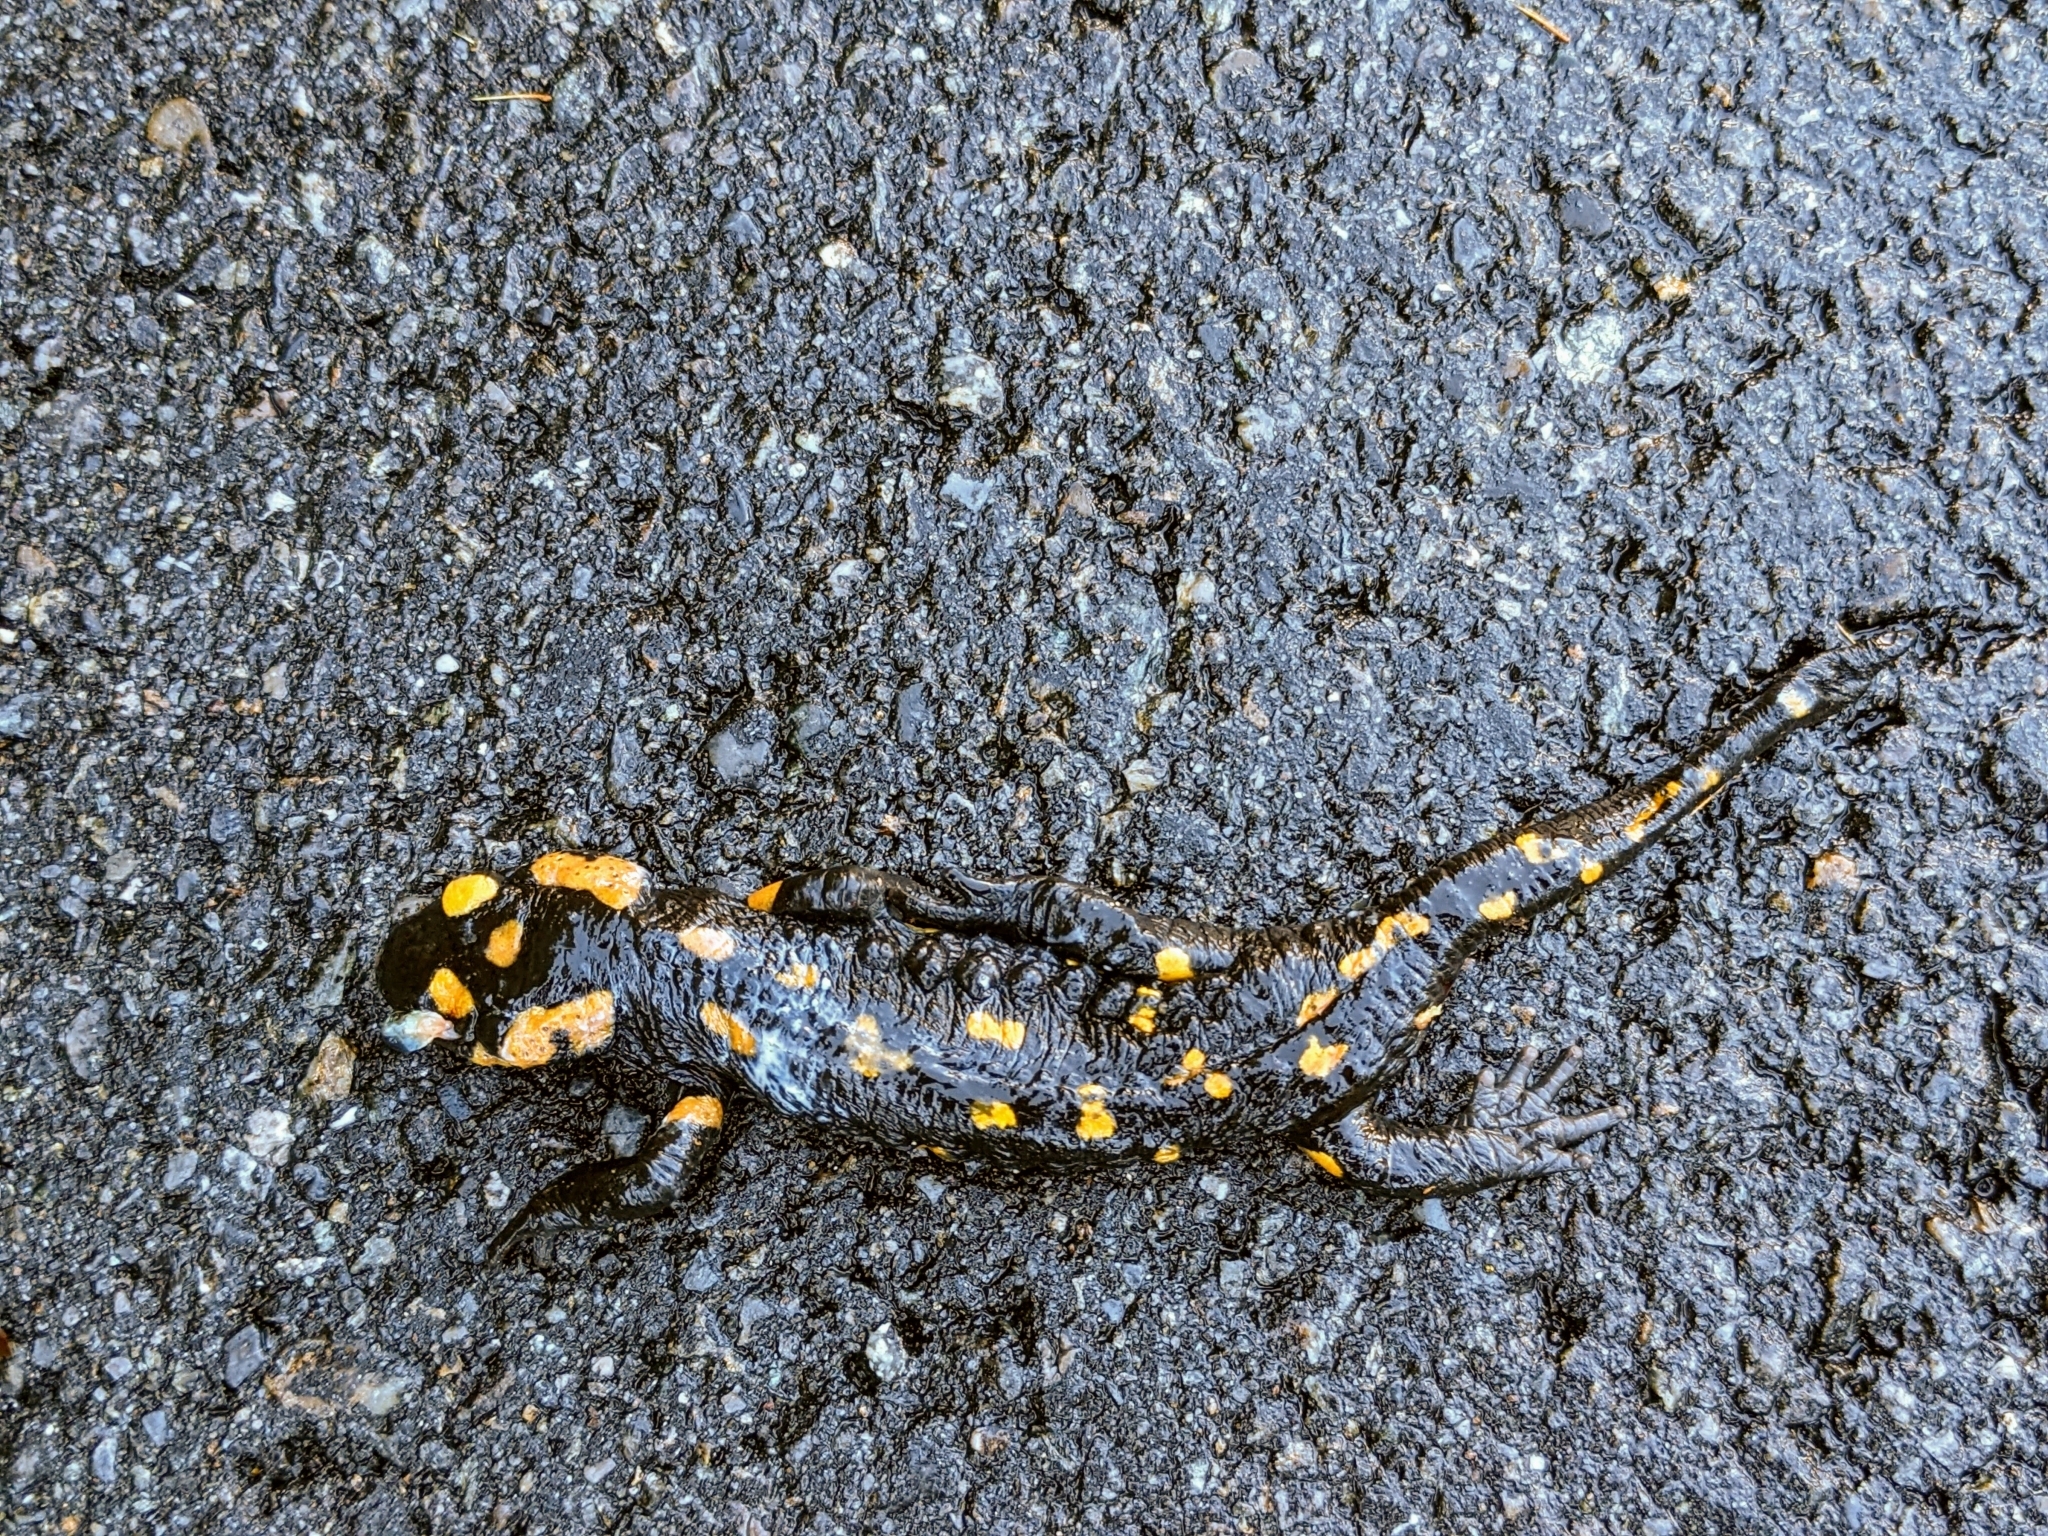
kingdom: Animalia
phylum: Chordata
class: Amphibia
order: Caudata
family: Salamandridae
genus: Salamandra
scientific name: Salamandra salamandra
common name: Fire salamander
